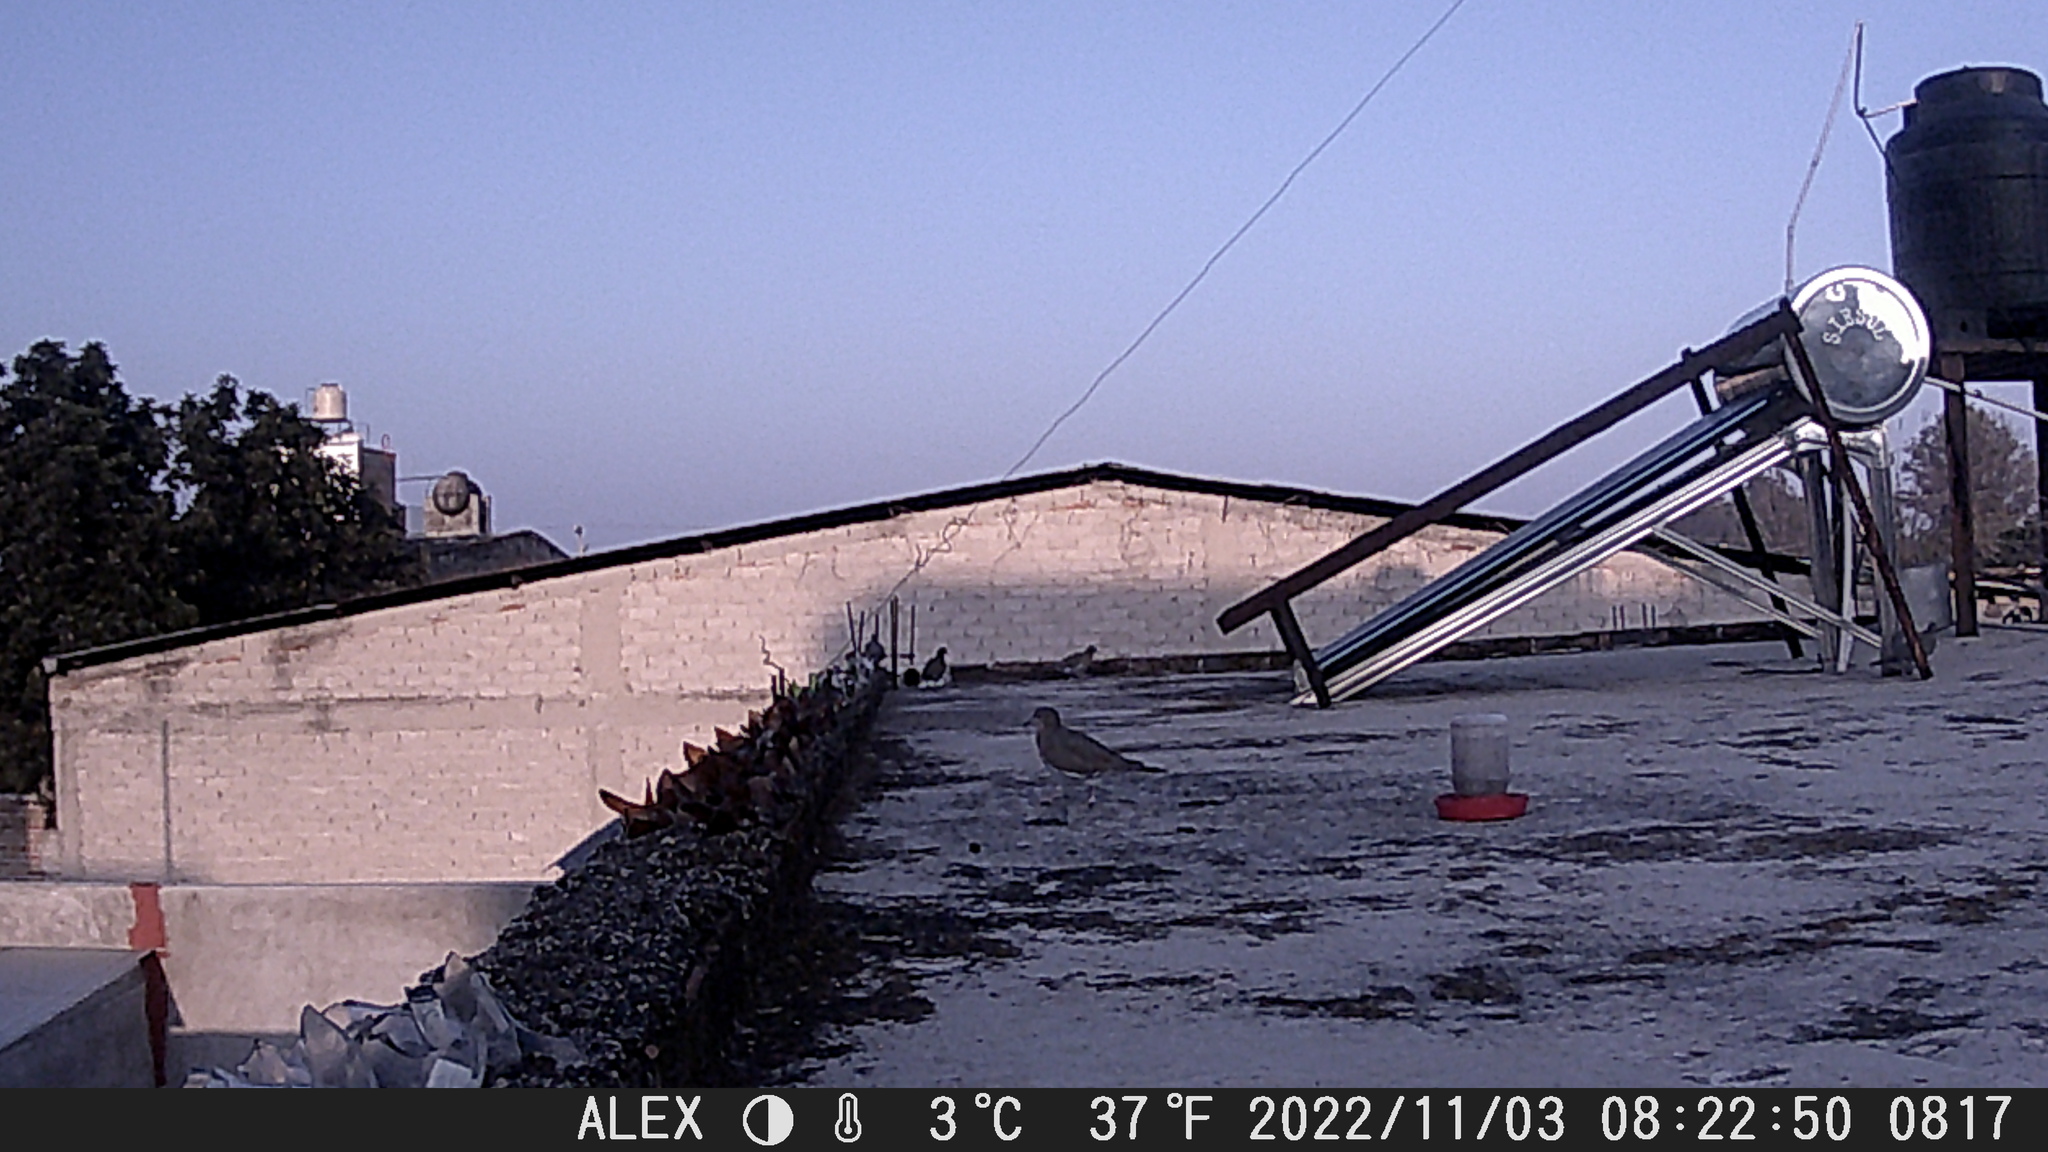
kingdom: Animalia
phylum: Chordata
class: Aves
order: Columbiformes
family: Columbidae
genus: Zenaida
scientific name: Zenaida asiatica
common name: White-winged dove
